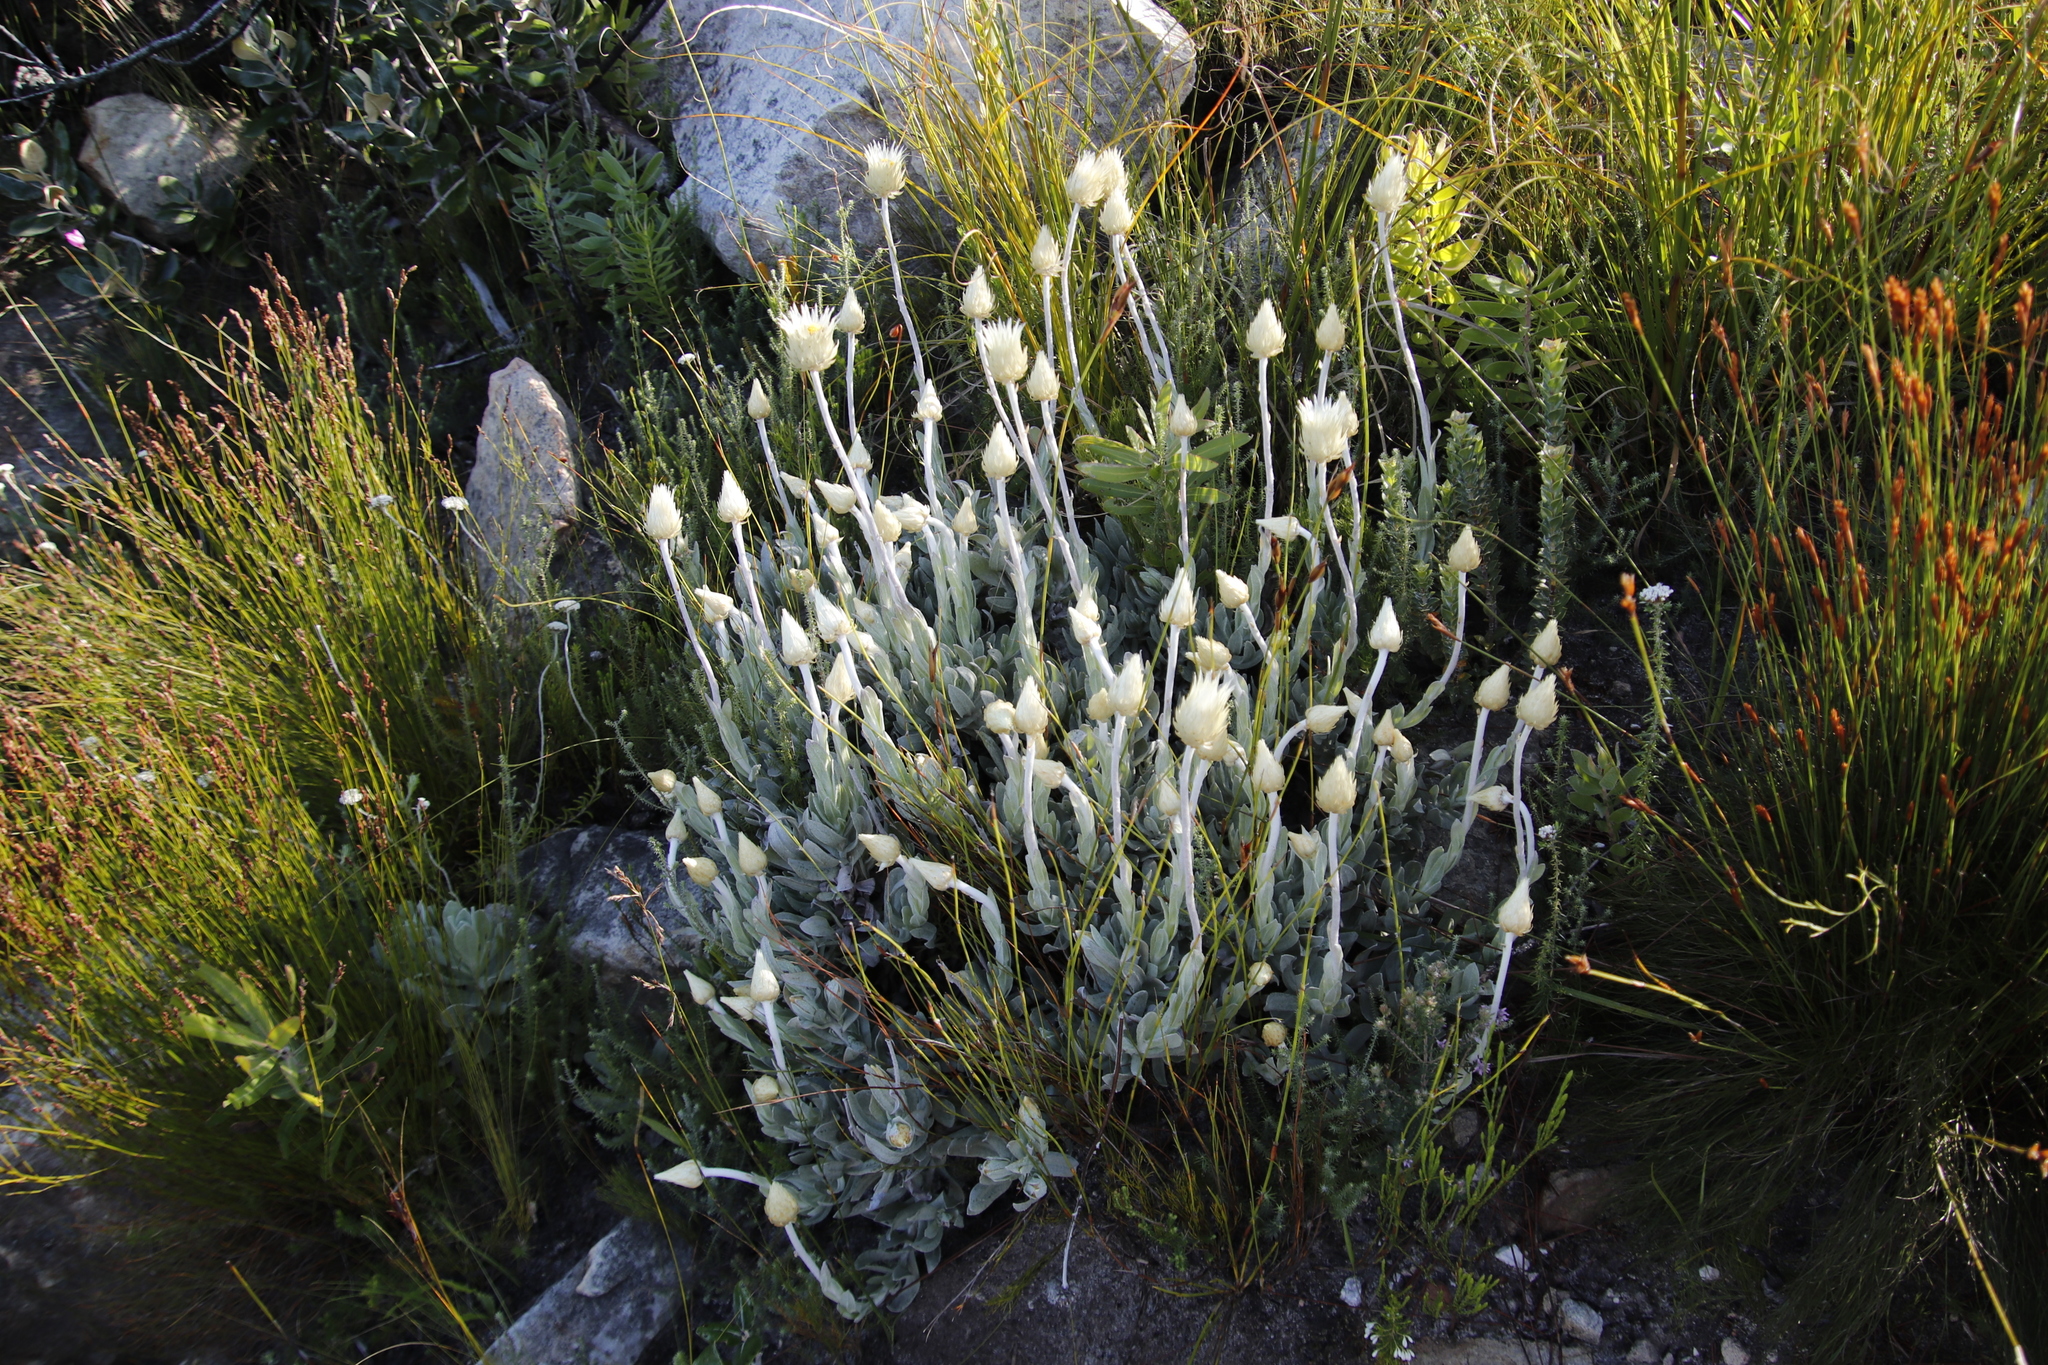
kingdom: Plantae
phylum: Tracheophyta
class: Magnoliopsida
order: Asterales
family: Asteraceae
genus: Syncarpha
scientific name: Syncarpha speciosissima
